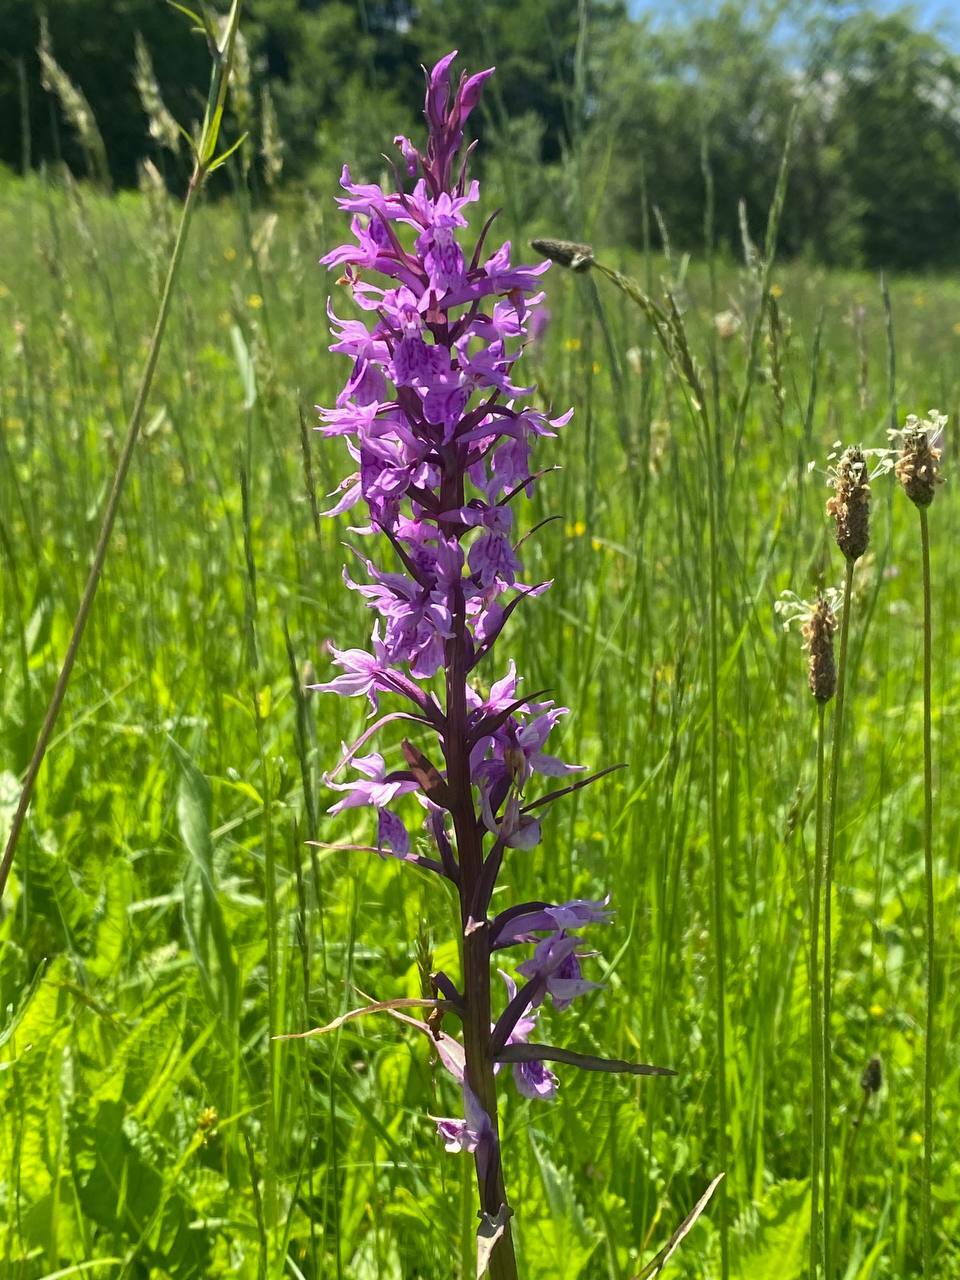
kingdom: Plantae
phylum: Tracheophyta
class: Liliopsida
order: Asparagales
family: Orchidaceae
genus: Dactylorhiza
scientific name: Dactylorhiza urvilleana
